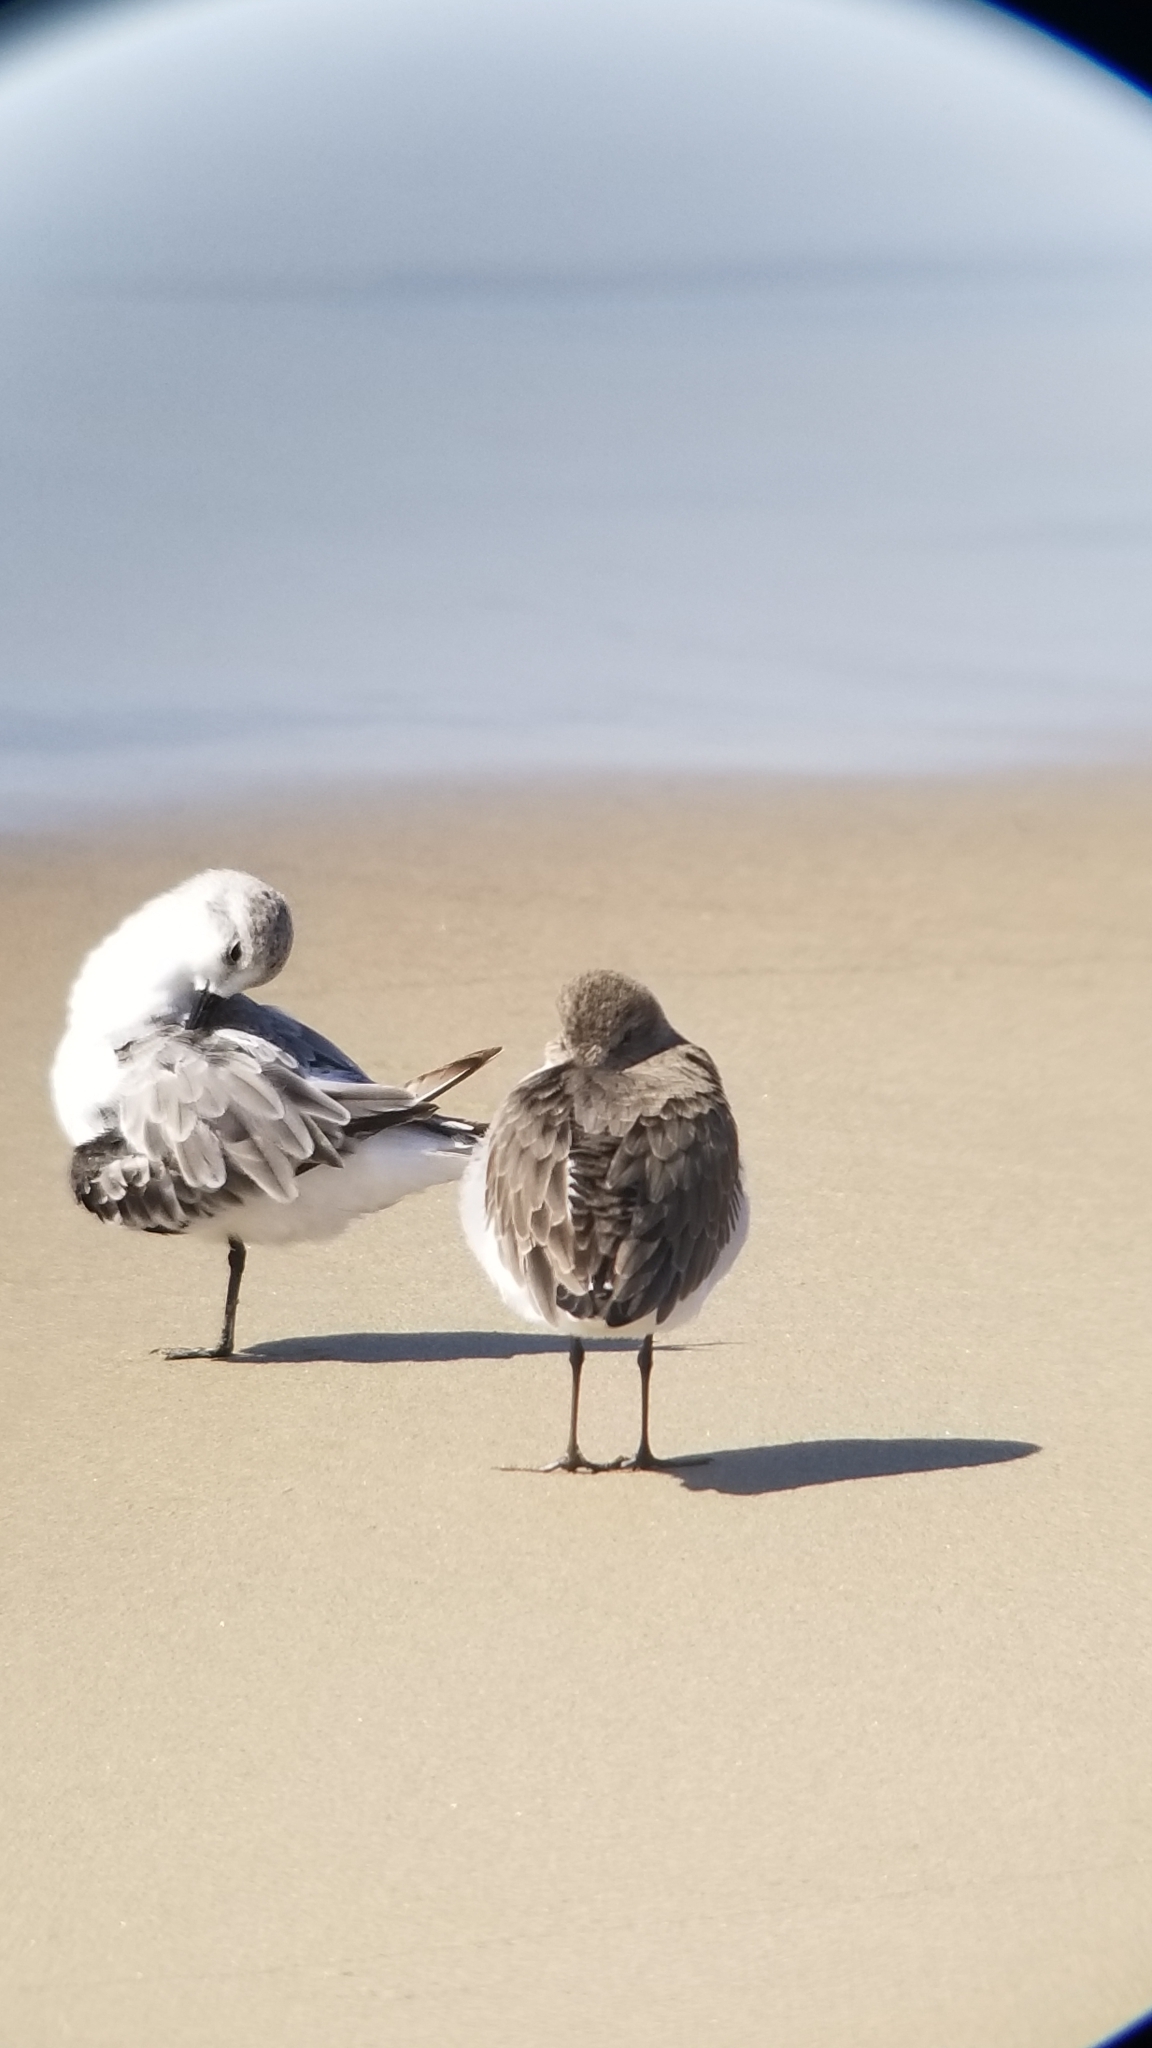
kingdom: Animalia
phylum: Chordata
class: Aves
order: Charadriiformes
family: Scolopacidae
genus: Calidris
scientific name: Calidris alba
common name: Sanderling
